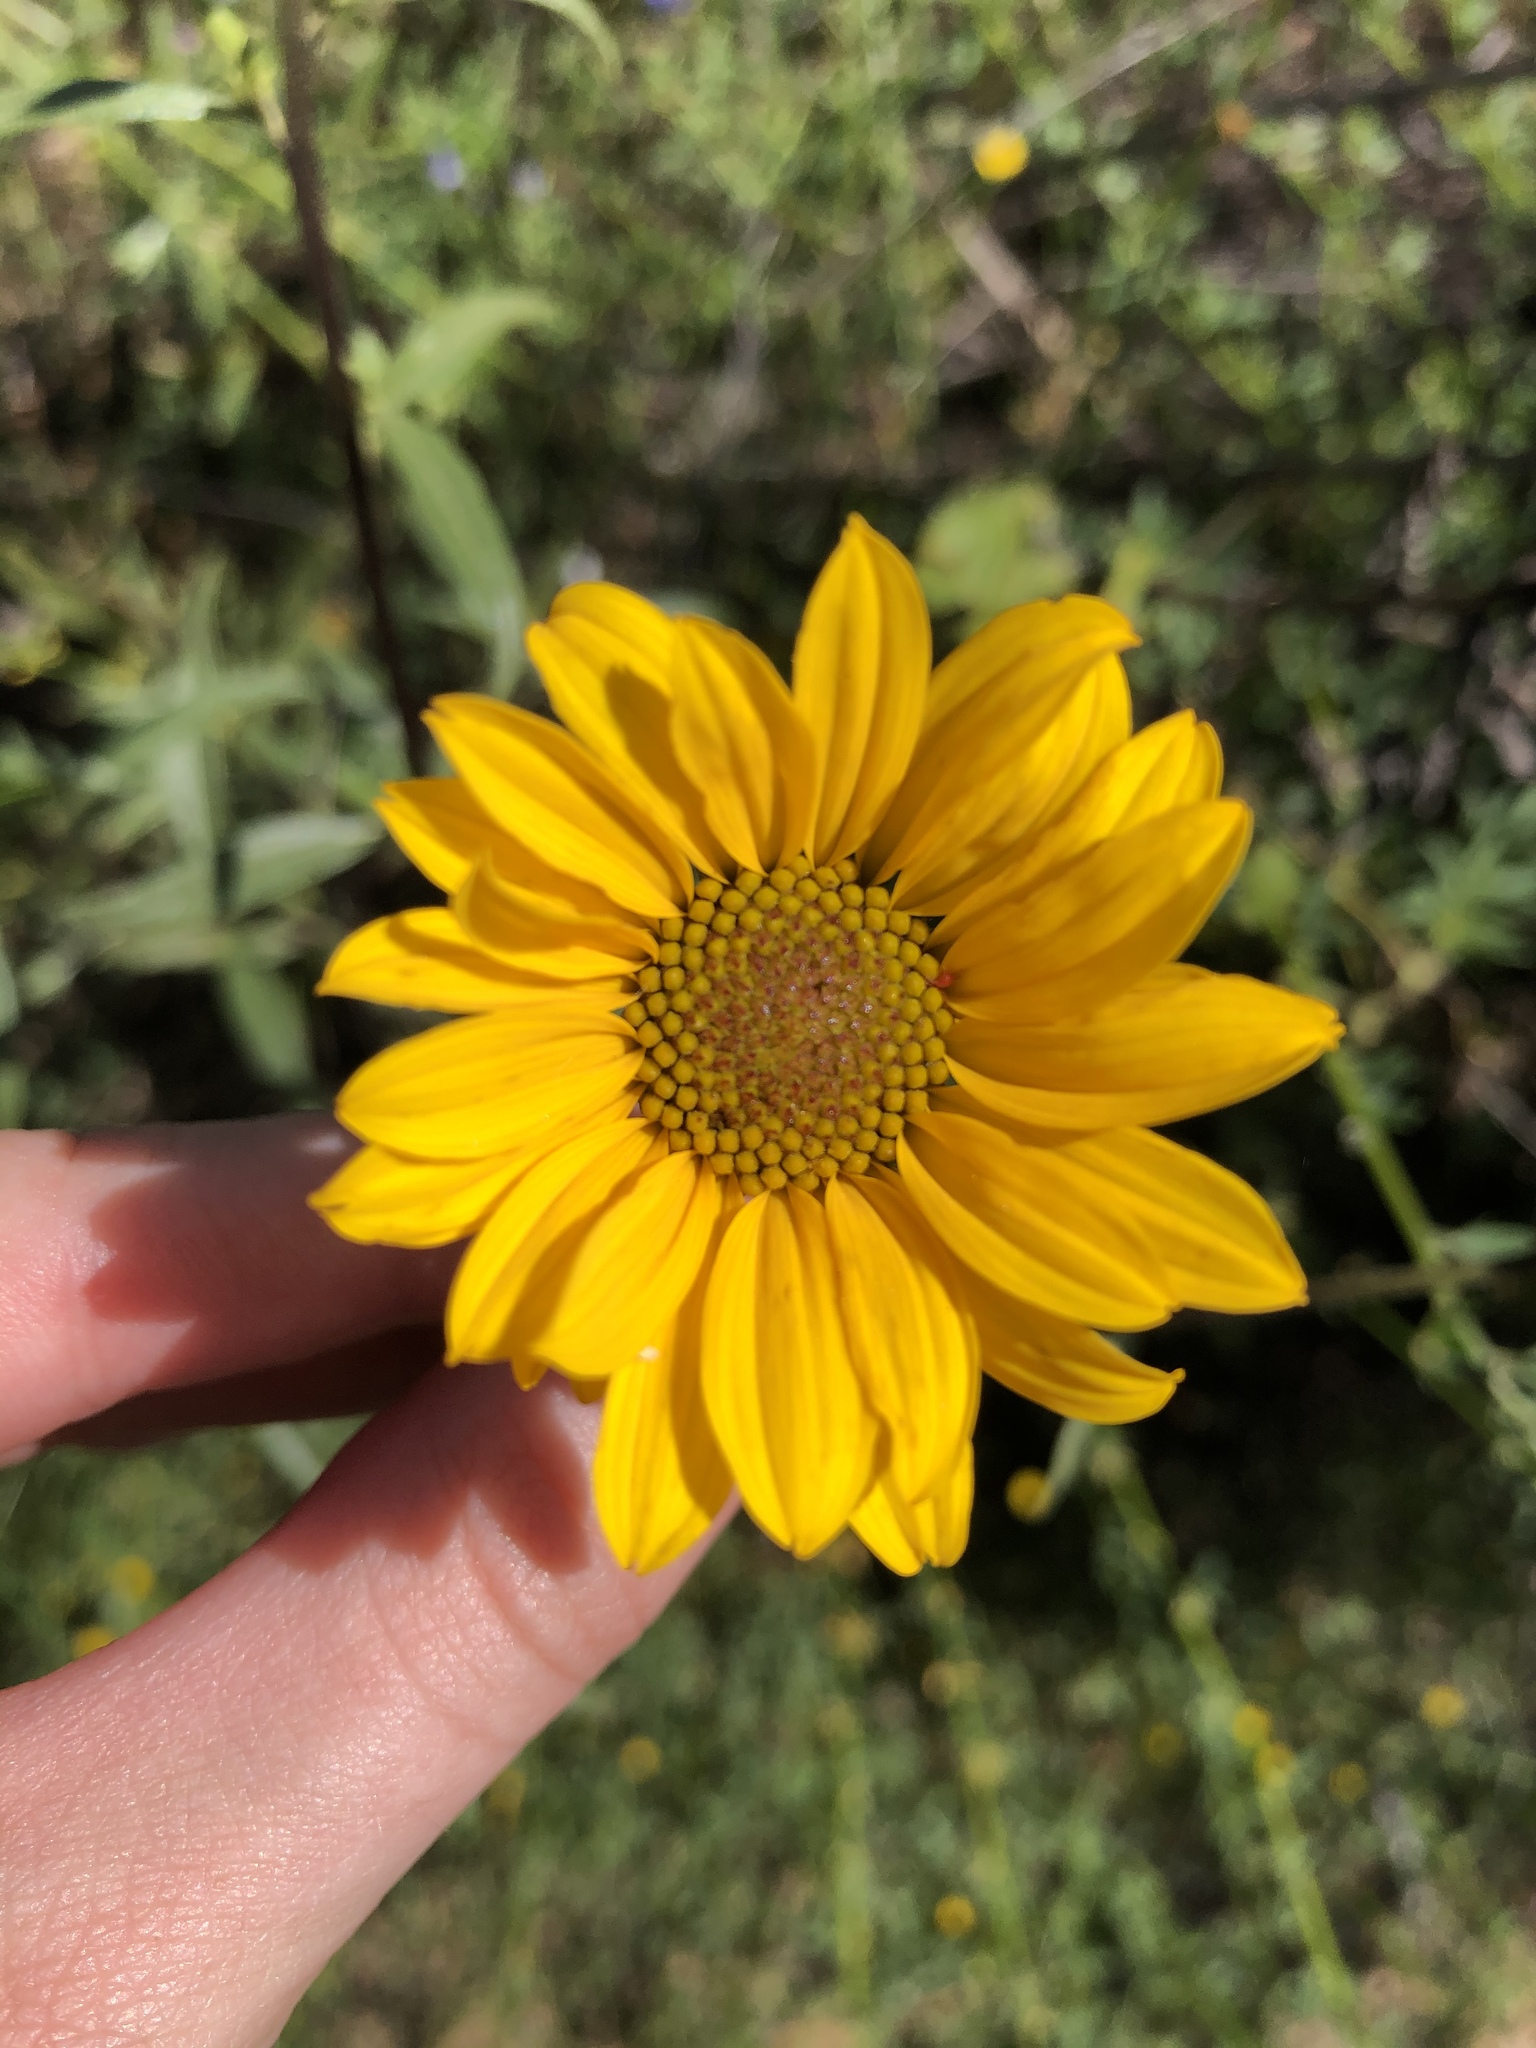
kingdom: Plantae
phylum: Tracheophyta
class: Magnoliopsida
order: Asterales
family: Asteraceae
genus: Helianthus
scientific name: Helianthus gracilentus
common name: Slender sunflower
